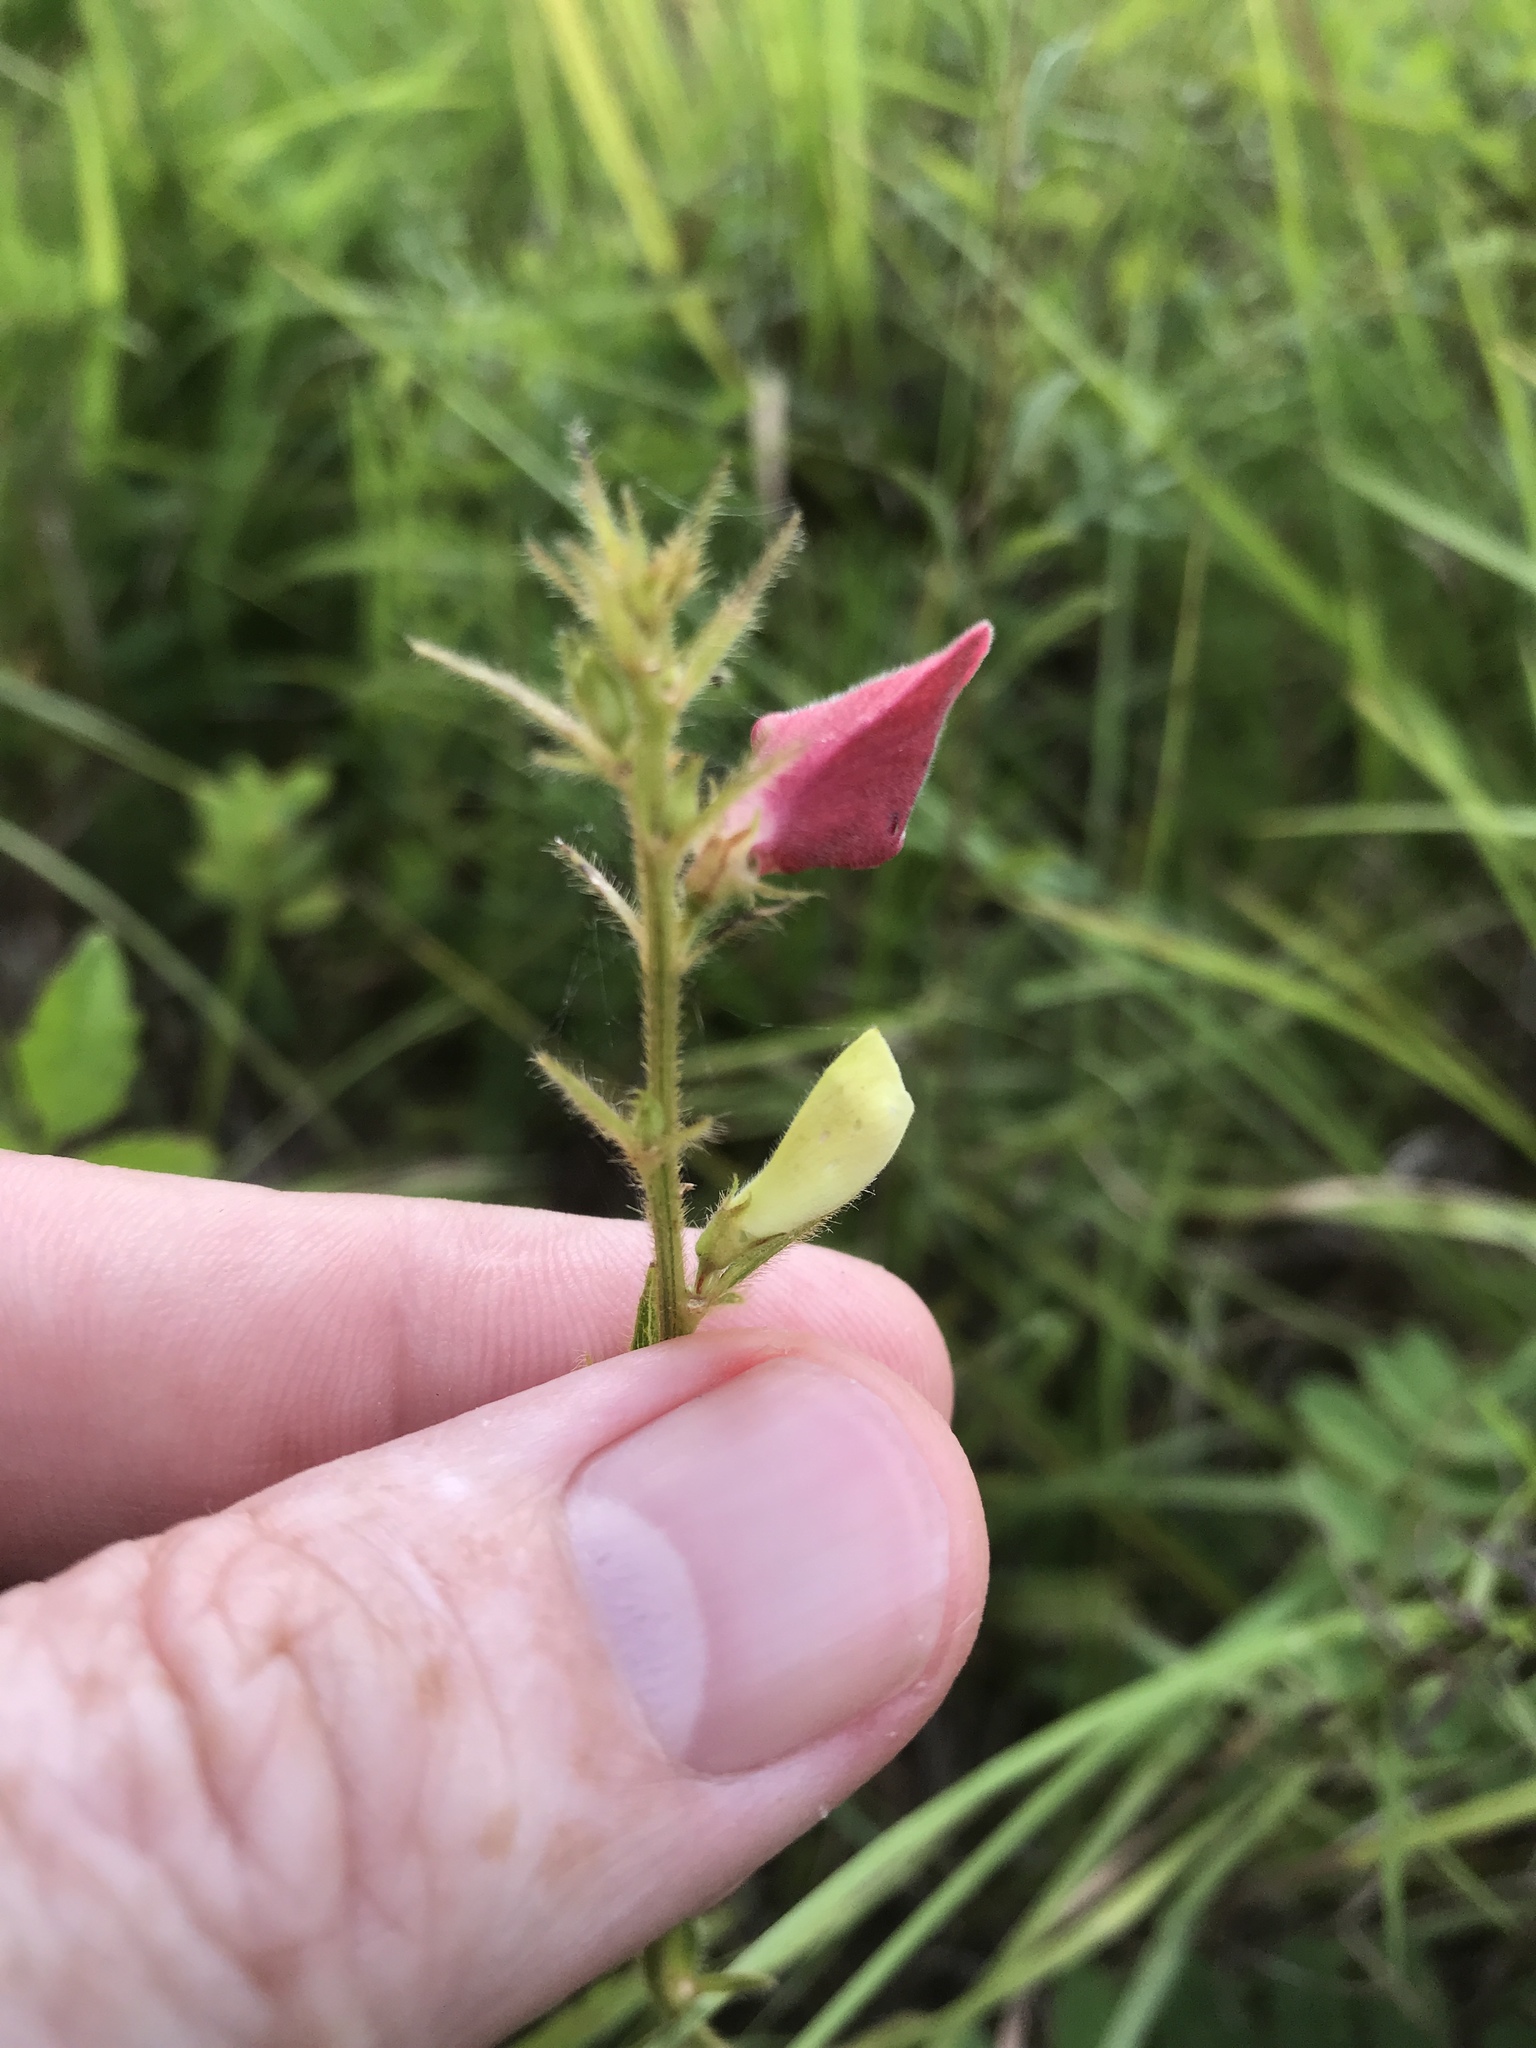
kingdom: Plantae
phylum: Tracheophyta
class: Magnoliopsida
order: Fabales
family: Fabaceae
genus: Tephrosia
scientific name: Tephrosia spicata
